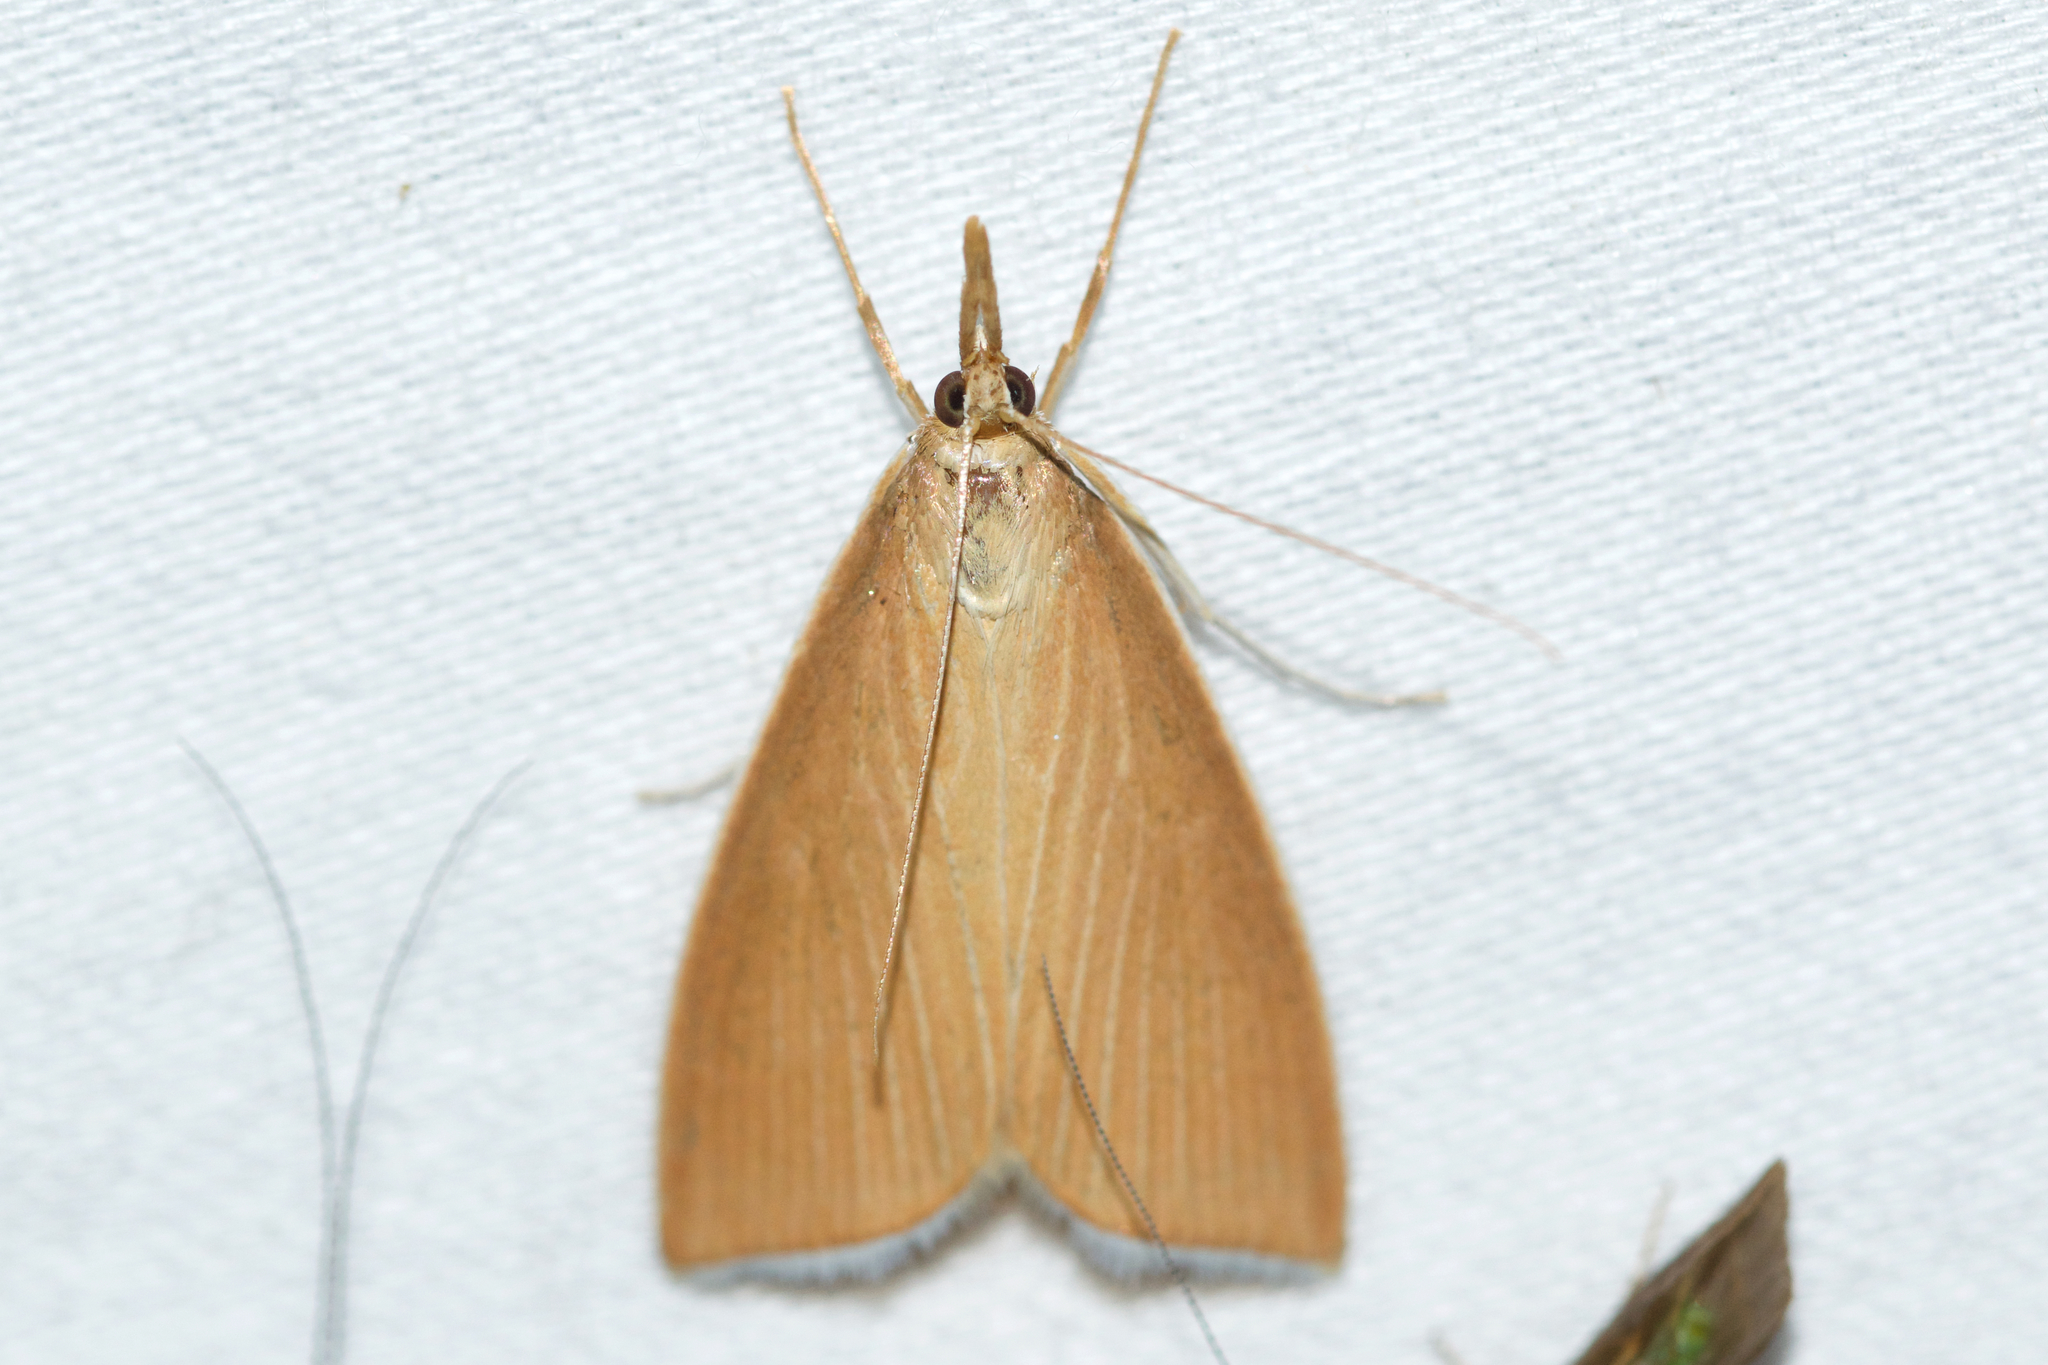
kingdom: Animalia
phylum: Arthropoda
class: Insecta
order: Lepidoptera
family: Crambidae
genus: Calamochrous
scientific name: Calamochrous Sclerocona acutella
